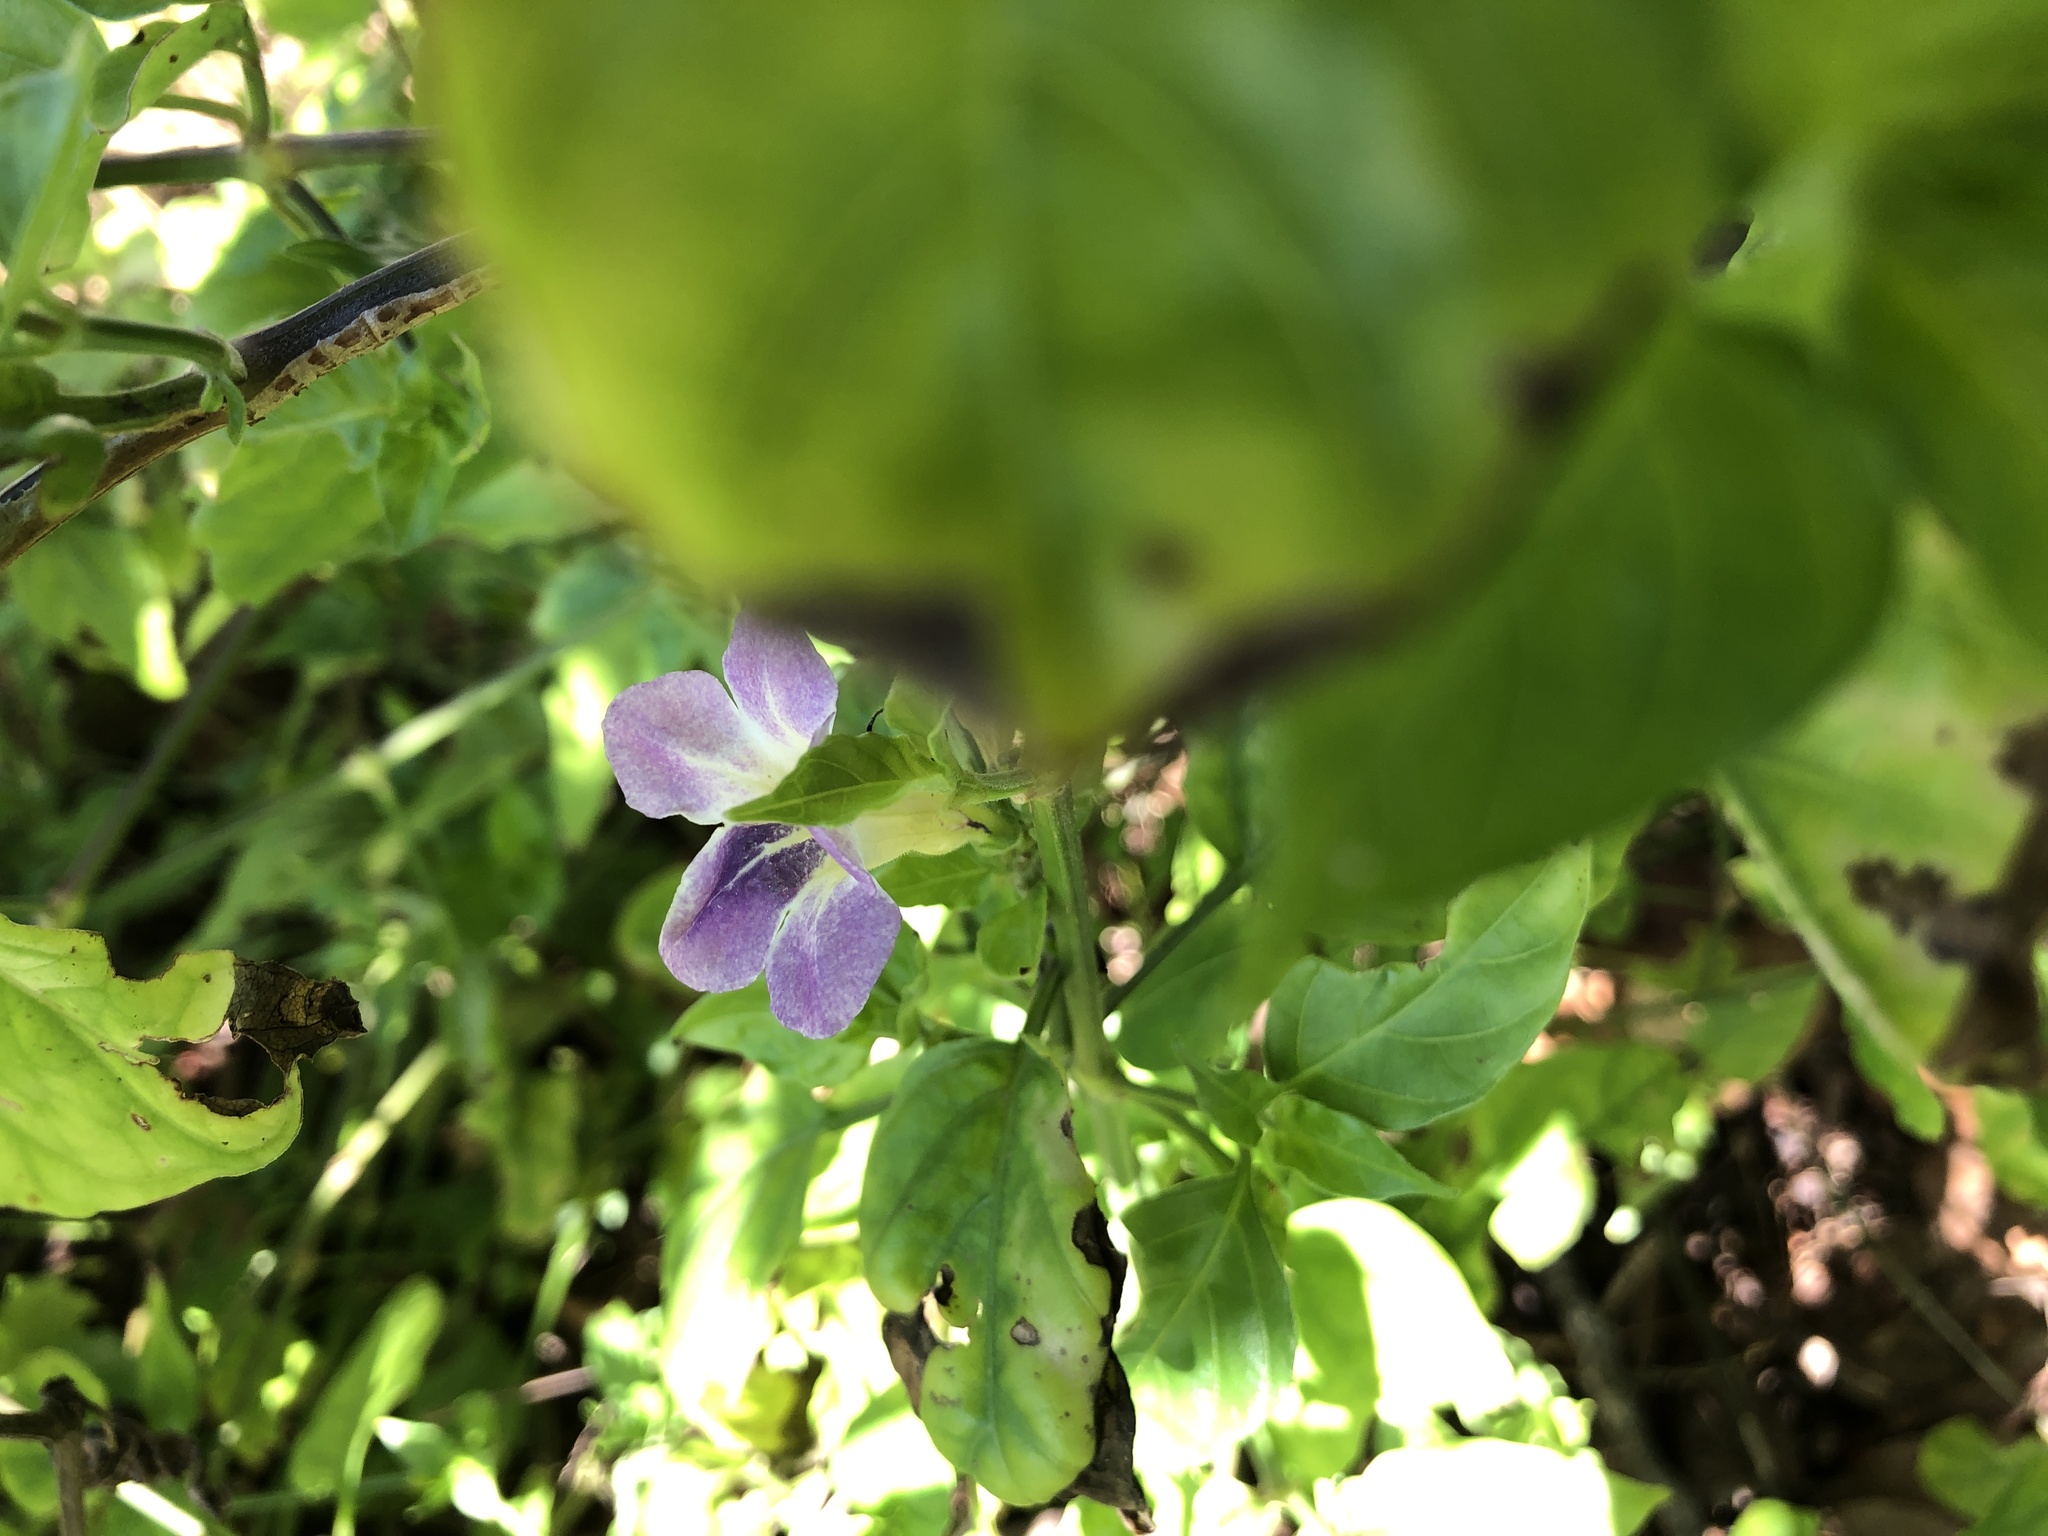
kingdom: Plantae
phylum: Tracheophyta
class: Magnoliopsida
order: Lamiales
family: Acanthaceae
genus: Asystasia
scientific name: Asystasia gangetica
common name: Chinese violet
